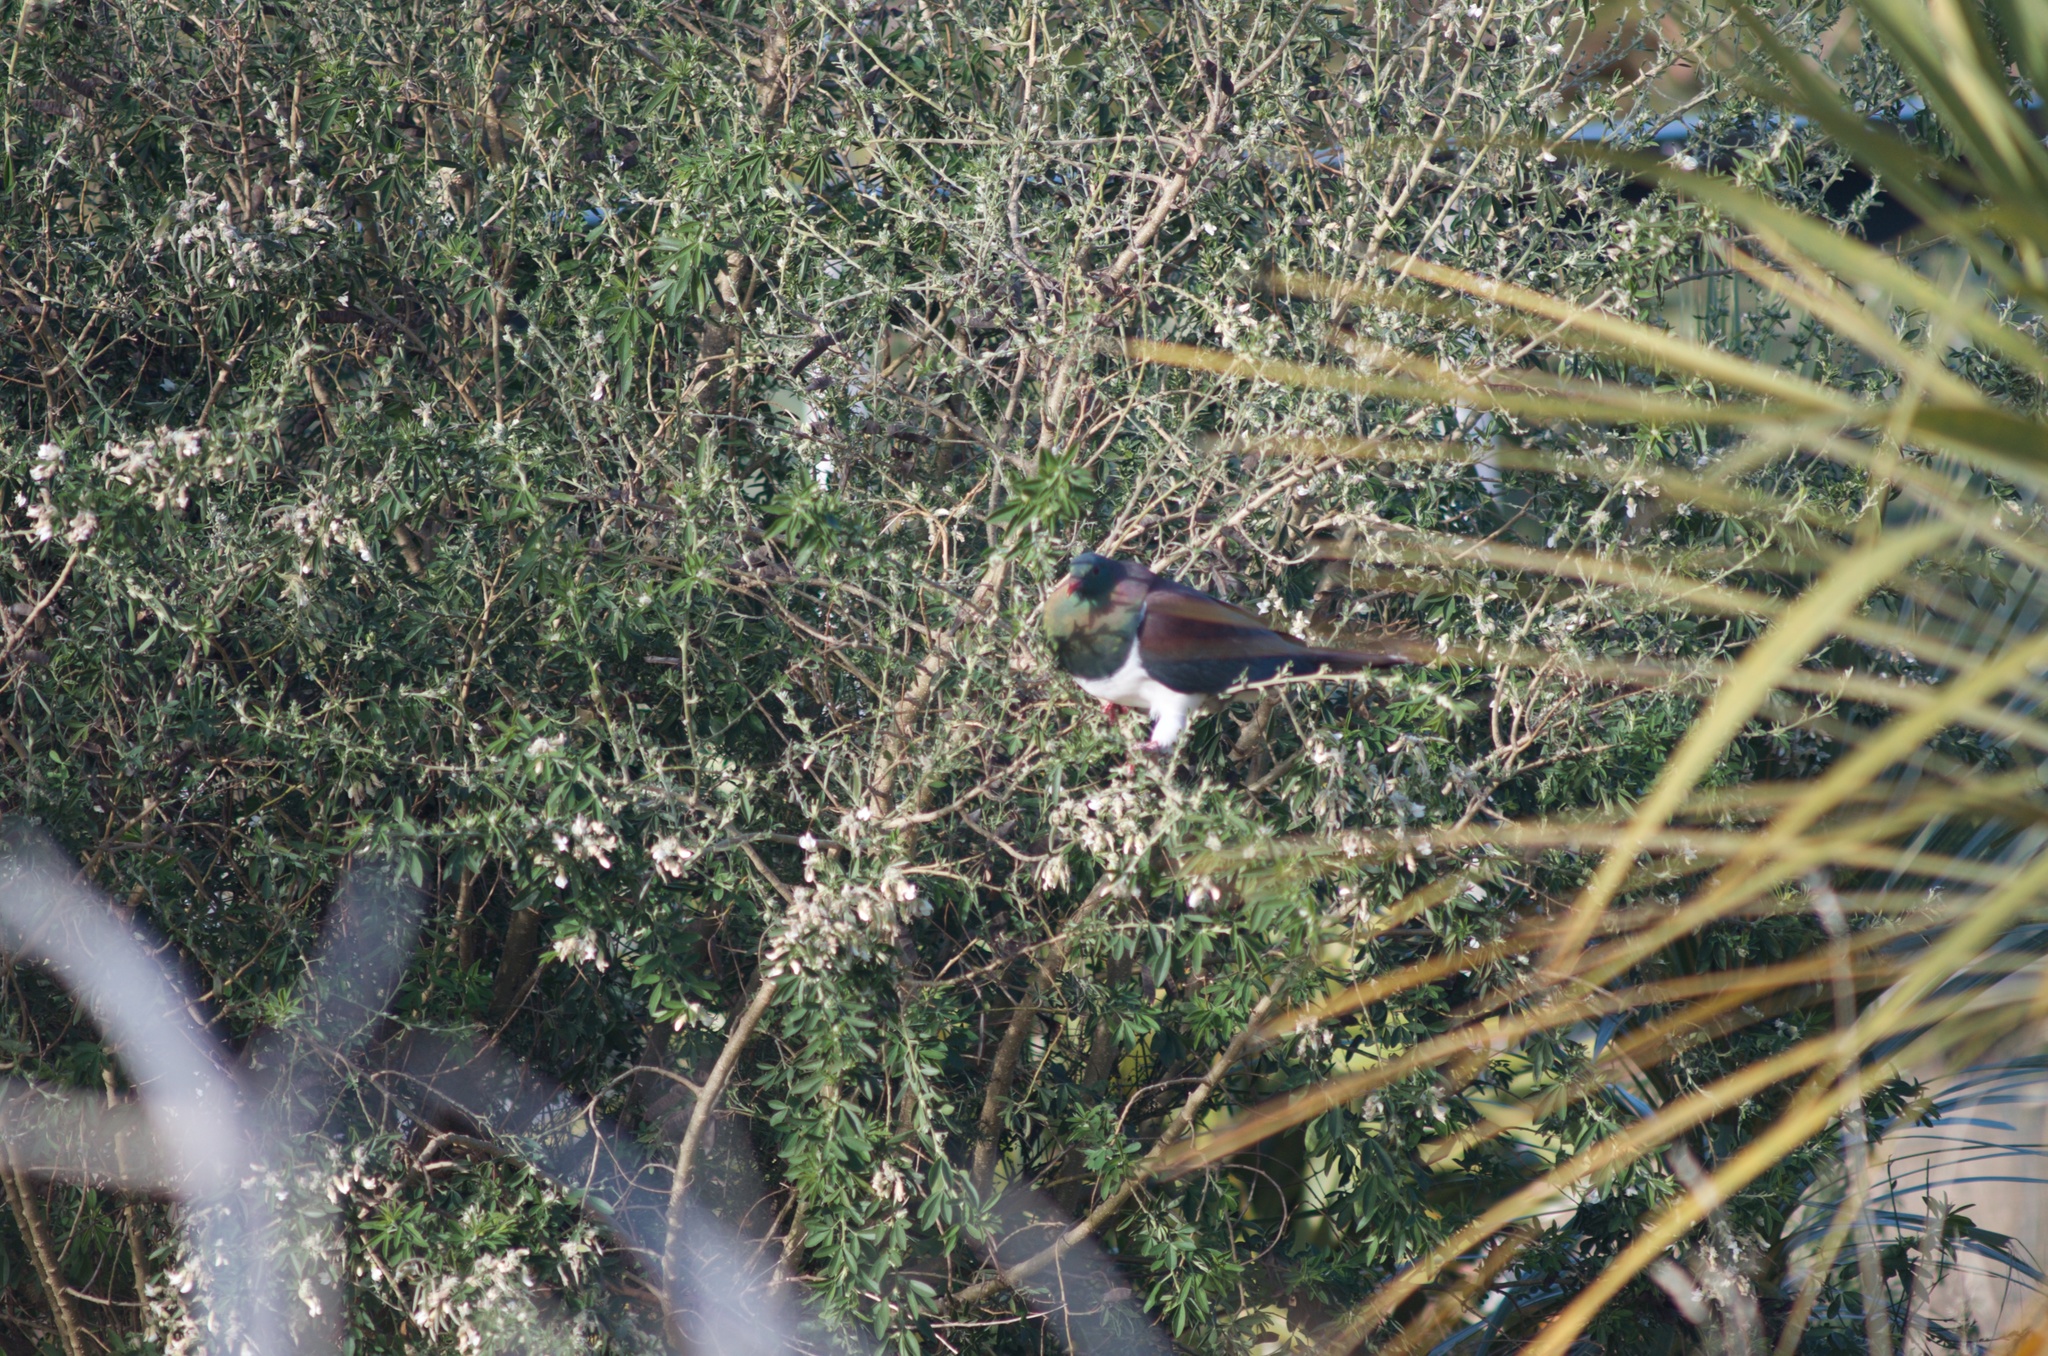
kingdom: Animalia
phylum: Chordata
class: Aves
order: Columbiformes
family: Columbidae
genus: Hemiphaga
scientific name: Hemiphaga novaeseelandiae
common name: New zealand pigeon
